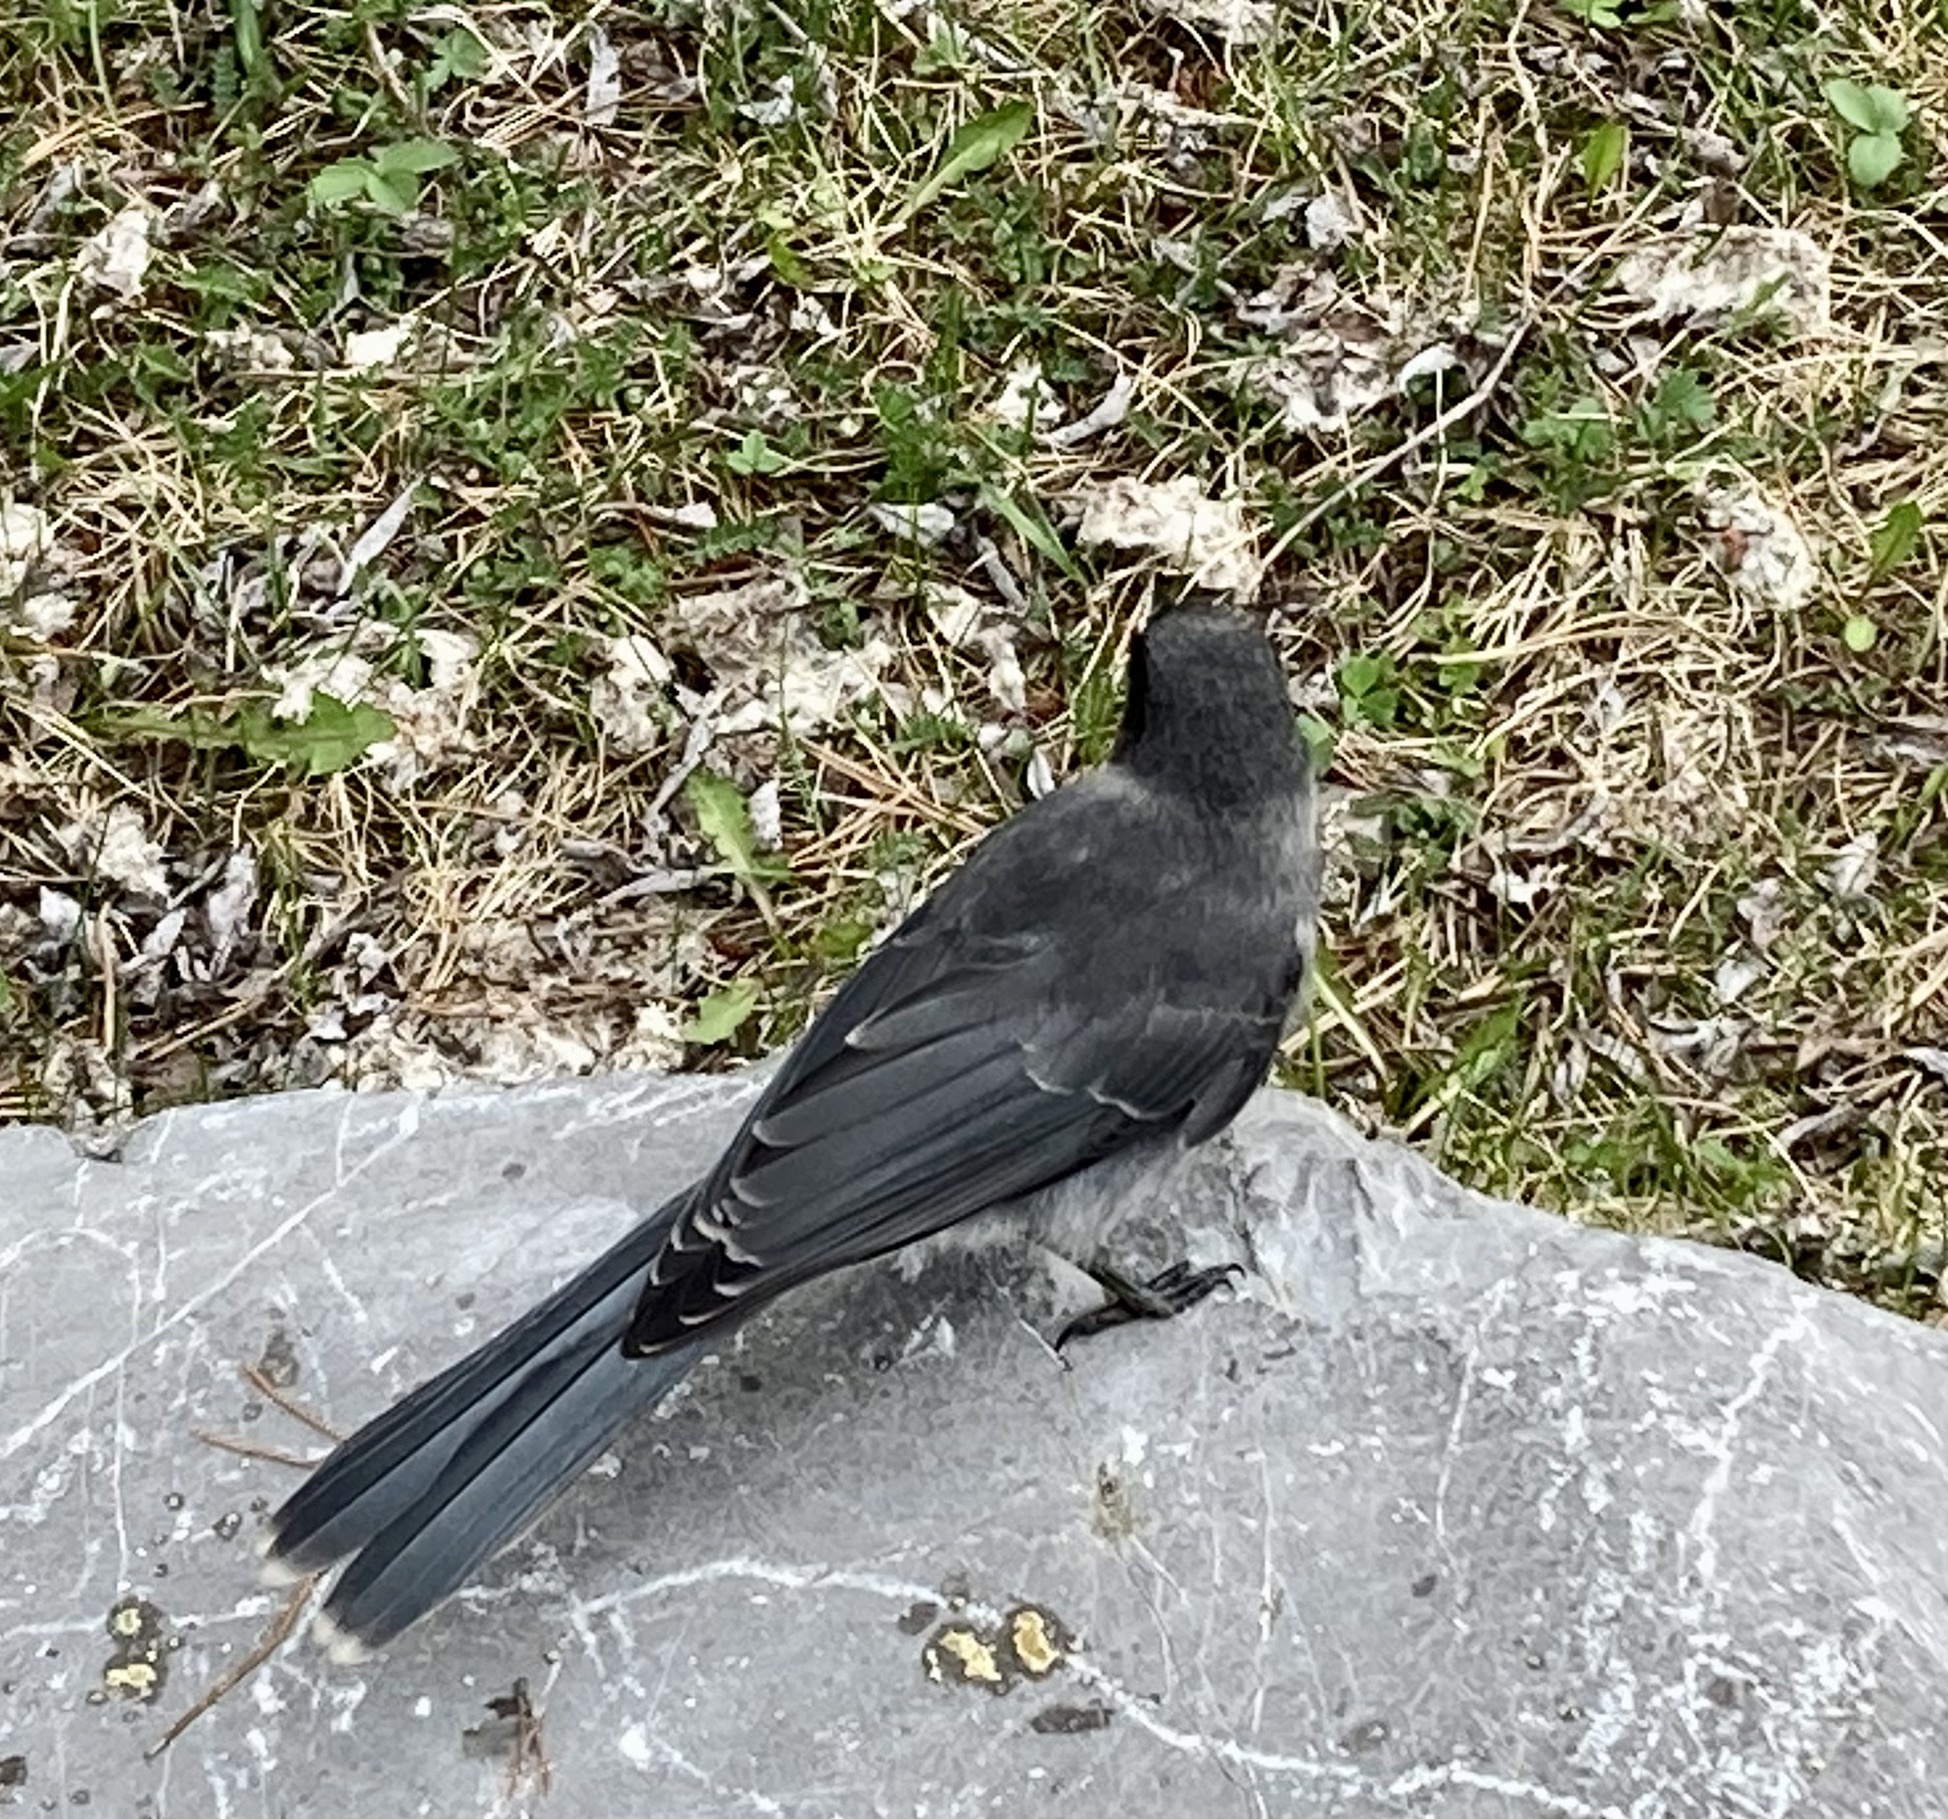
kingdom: Animalia
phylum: Chordata
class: Aves
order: Passeriformes
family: Corvidae
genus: Perisoreus
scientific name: Perisoreus canadensis
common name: Gray jay
